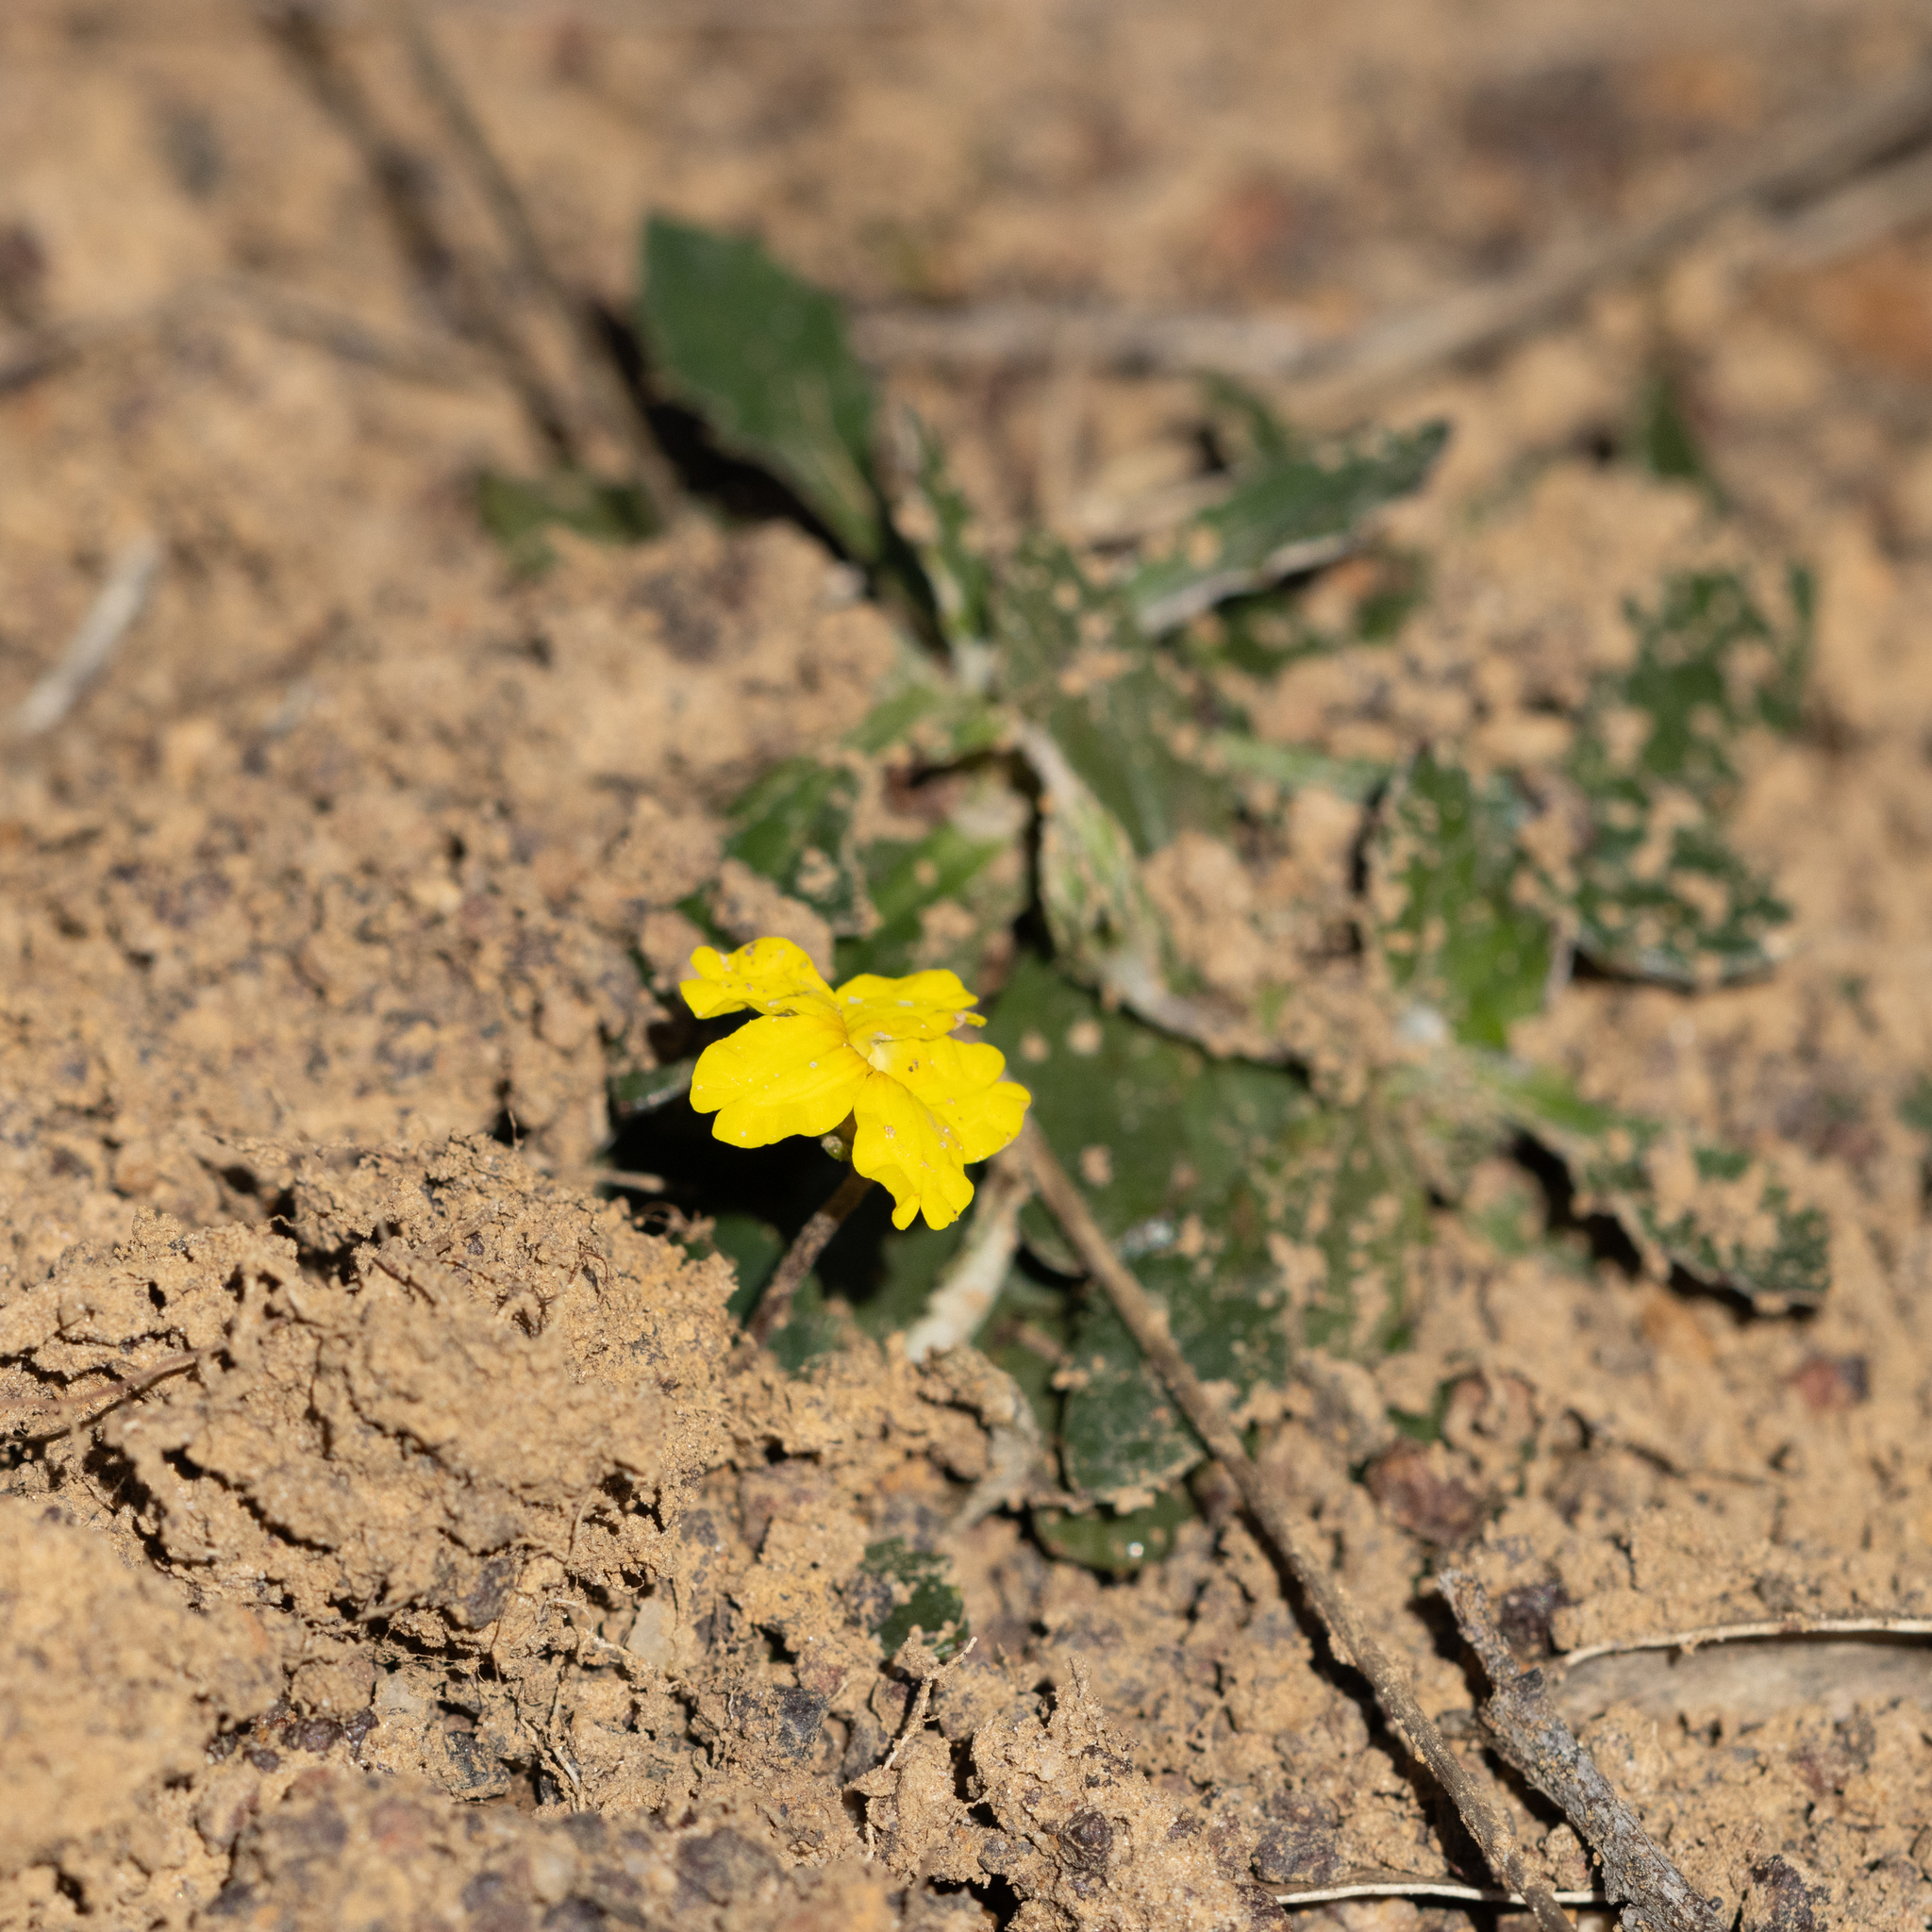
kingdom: Plantae
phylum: Tracheophyta
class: Magnoliopsida
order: Asterales
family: Goodeniaceae
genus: Goodenia
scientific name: Goodenia blackiana
